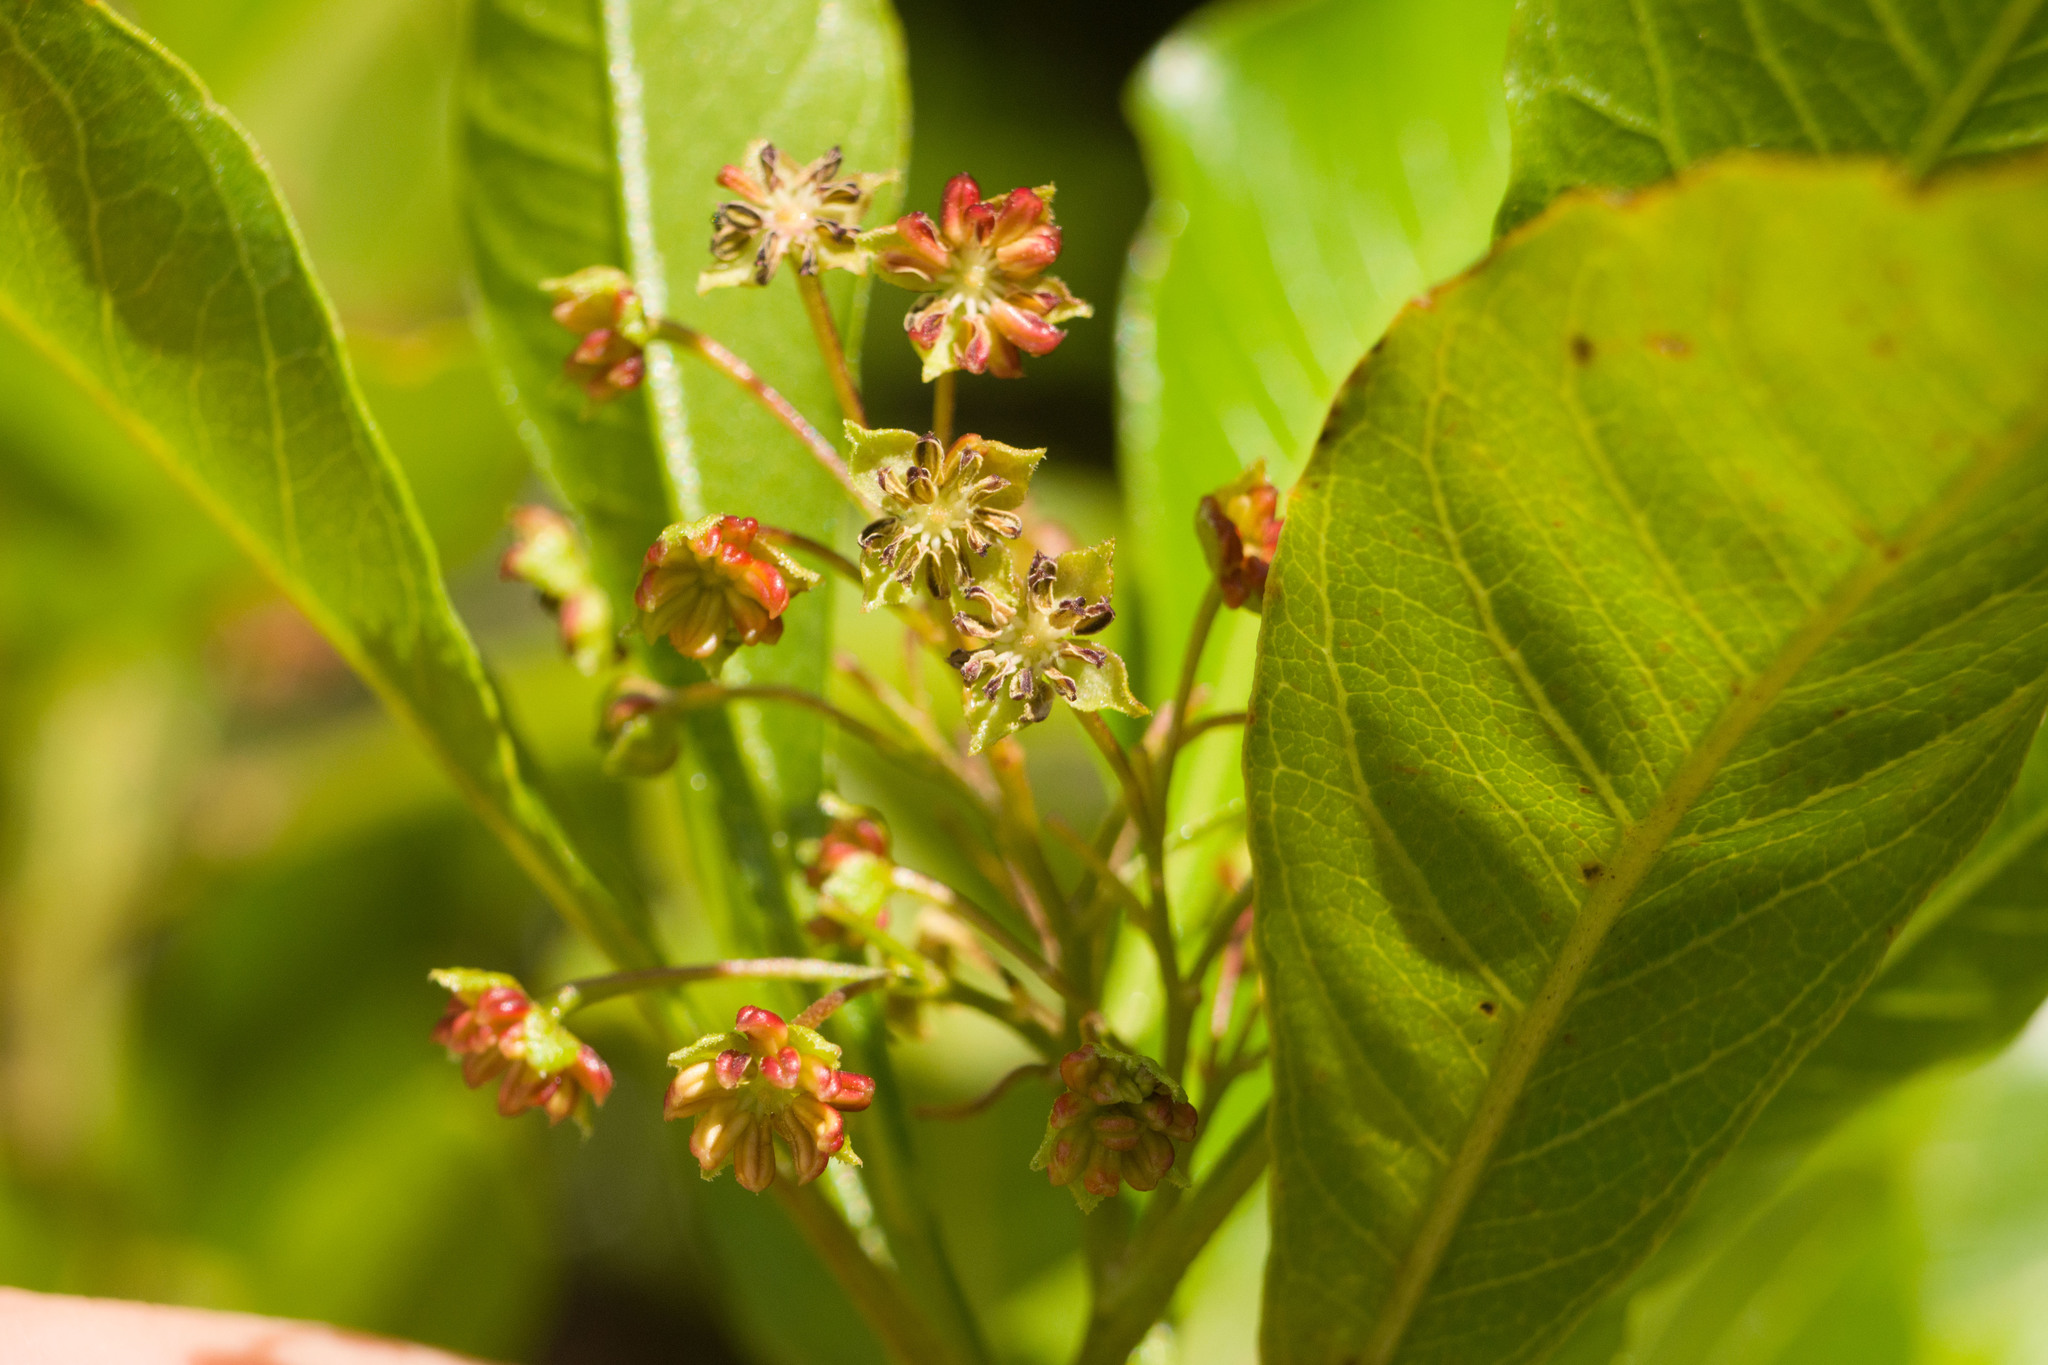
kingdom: Plantae
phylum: Tracheophyta
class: Magnoliopsida
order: Sapindales
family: Sapindaceae
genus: Dodonaea
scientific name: Dodonaea viscosa
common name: Hopbush
